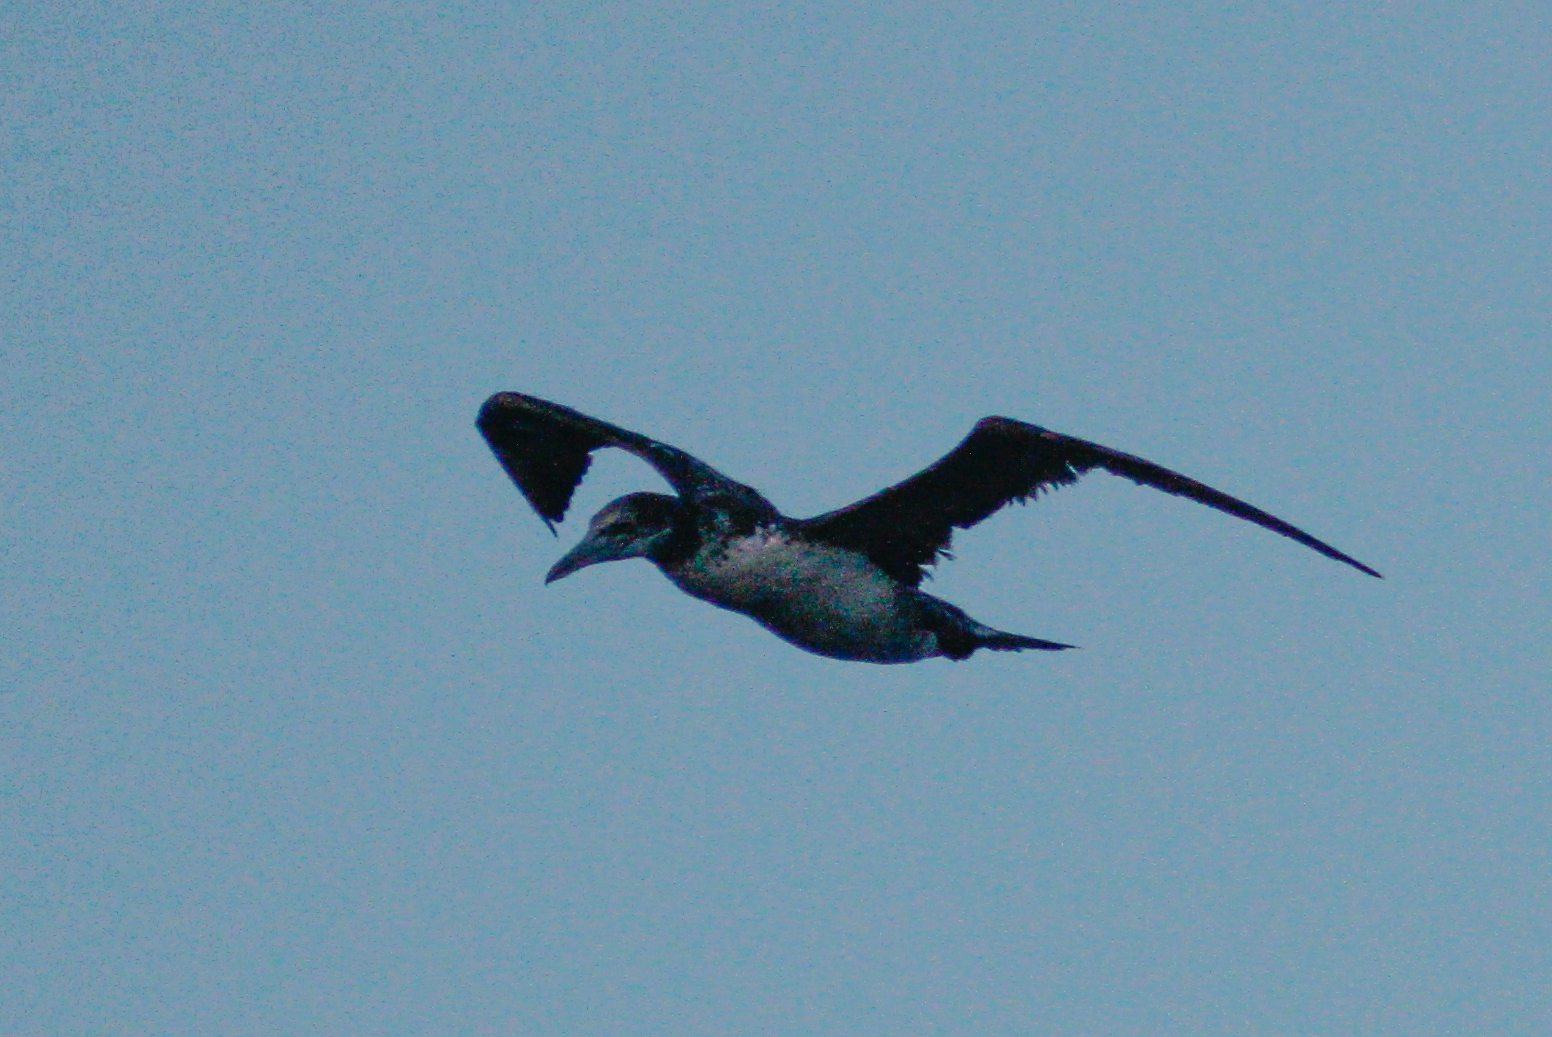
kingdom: Animalia
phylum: Chordata
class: Aves
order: Suliformes
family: Sulidae
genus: Morus
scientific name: Morus bassanus
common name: Northern gannet
